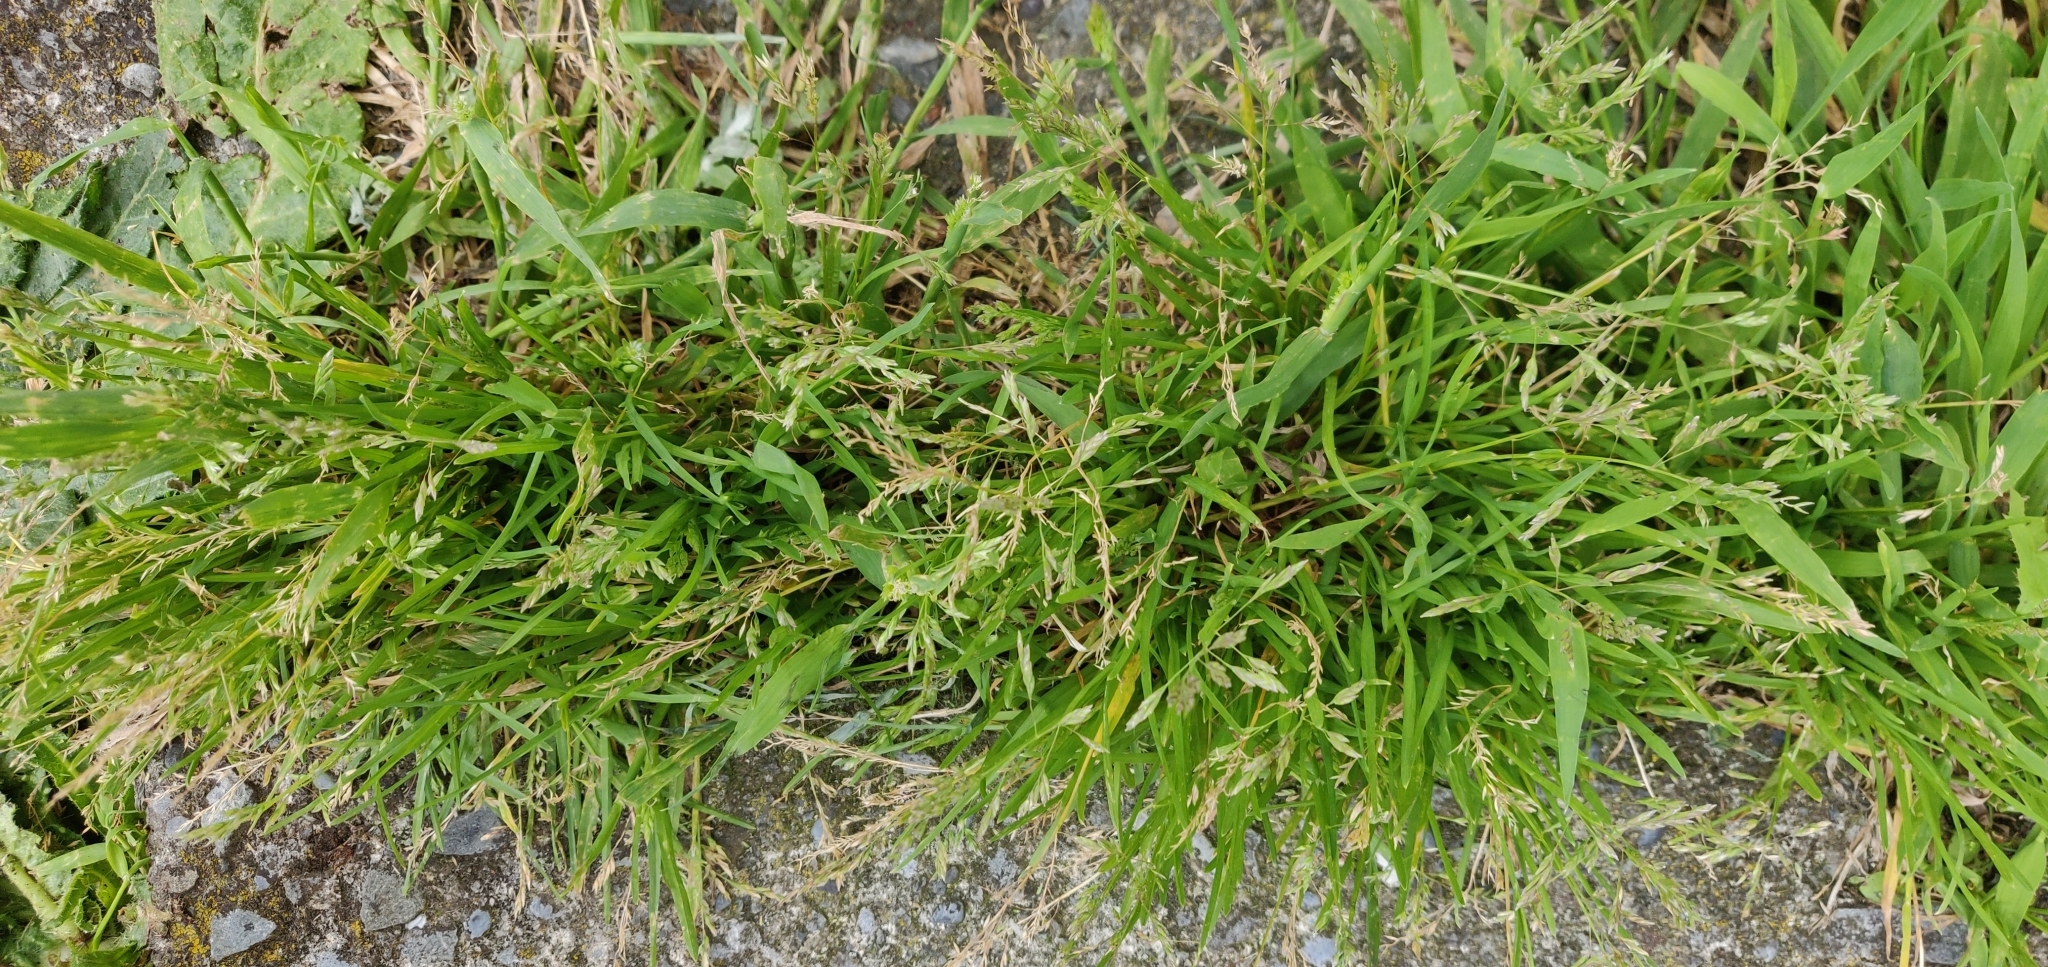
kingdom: Plantae
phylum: Tracheophyta
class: Liliopsida
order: Poales
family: Poaceae
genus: Poa
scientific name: Poa annua
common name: Annual bluegrass
